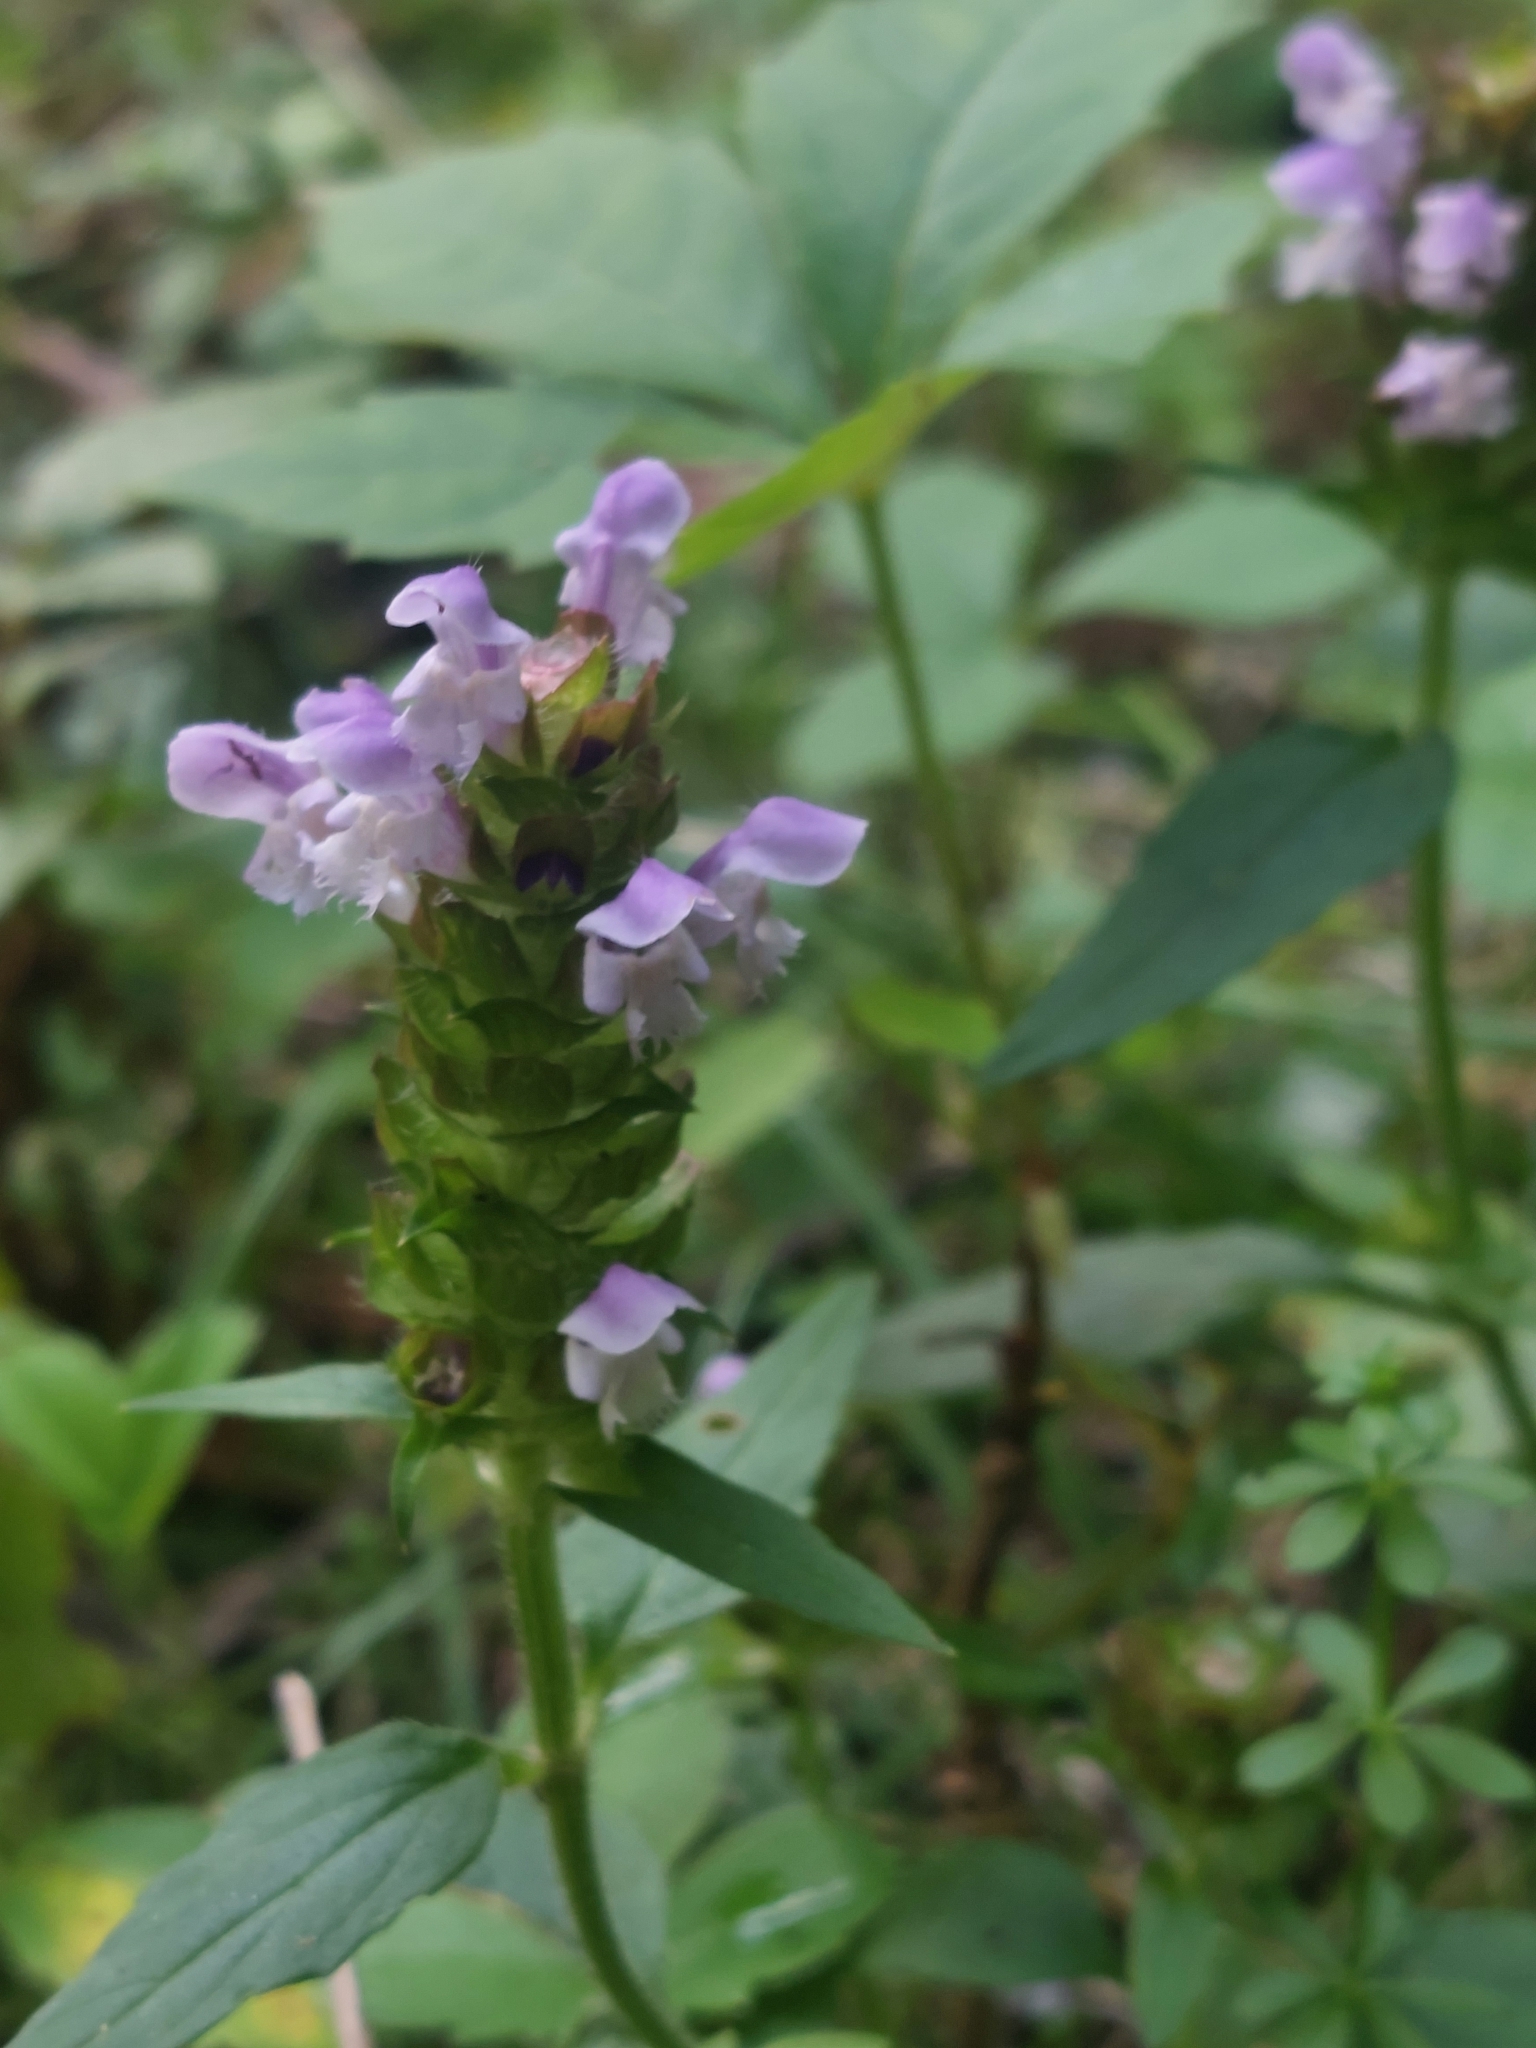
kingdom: Plantae
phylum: Tracheophyta
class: Magnoliopsida
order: Lamiales
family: Lamiaceae
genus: Prunella
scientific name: Prunella vulgaris
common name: Heal-all
